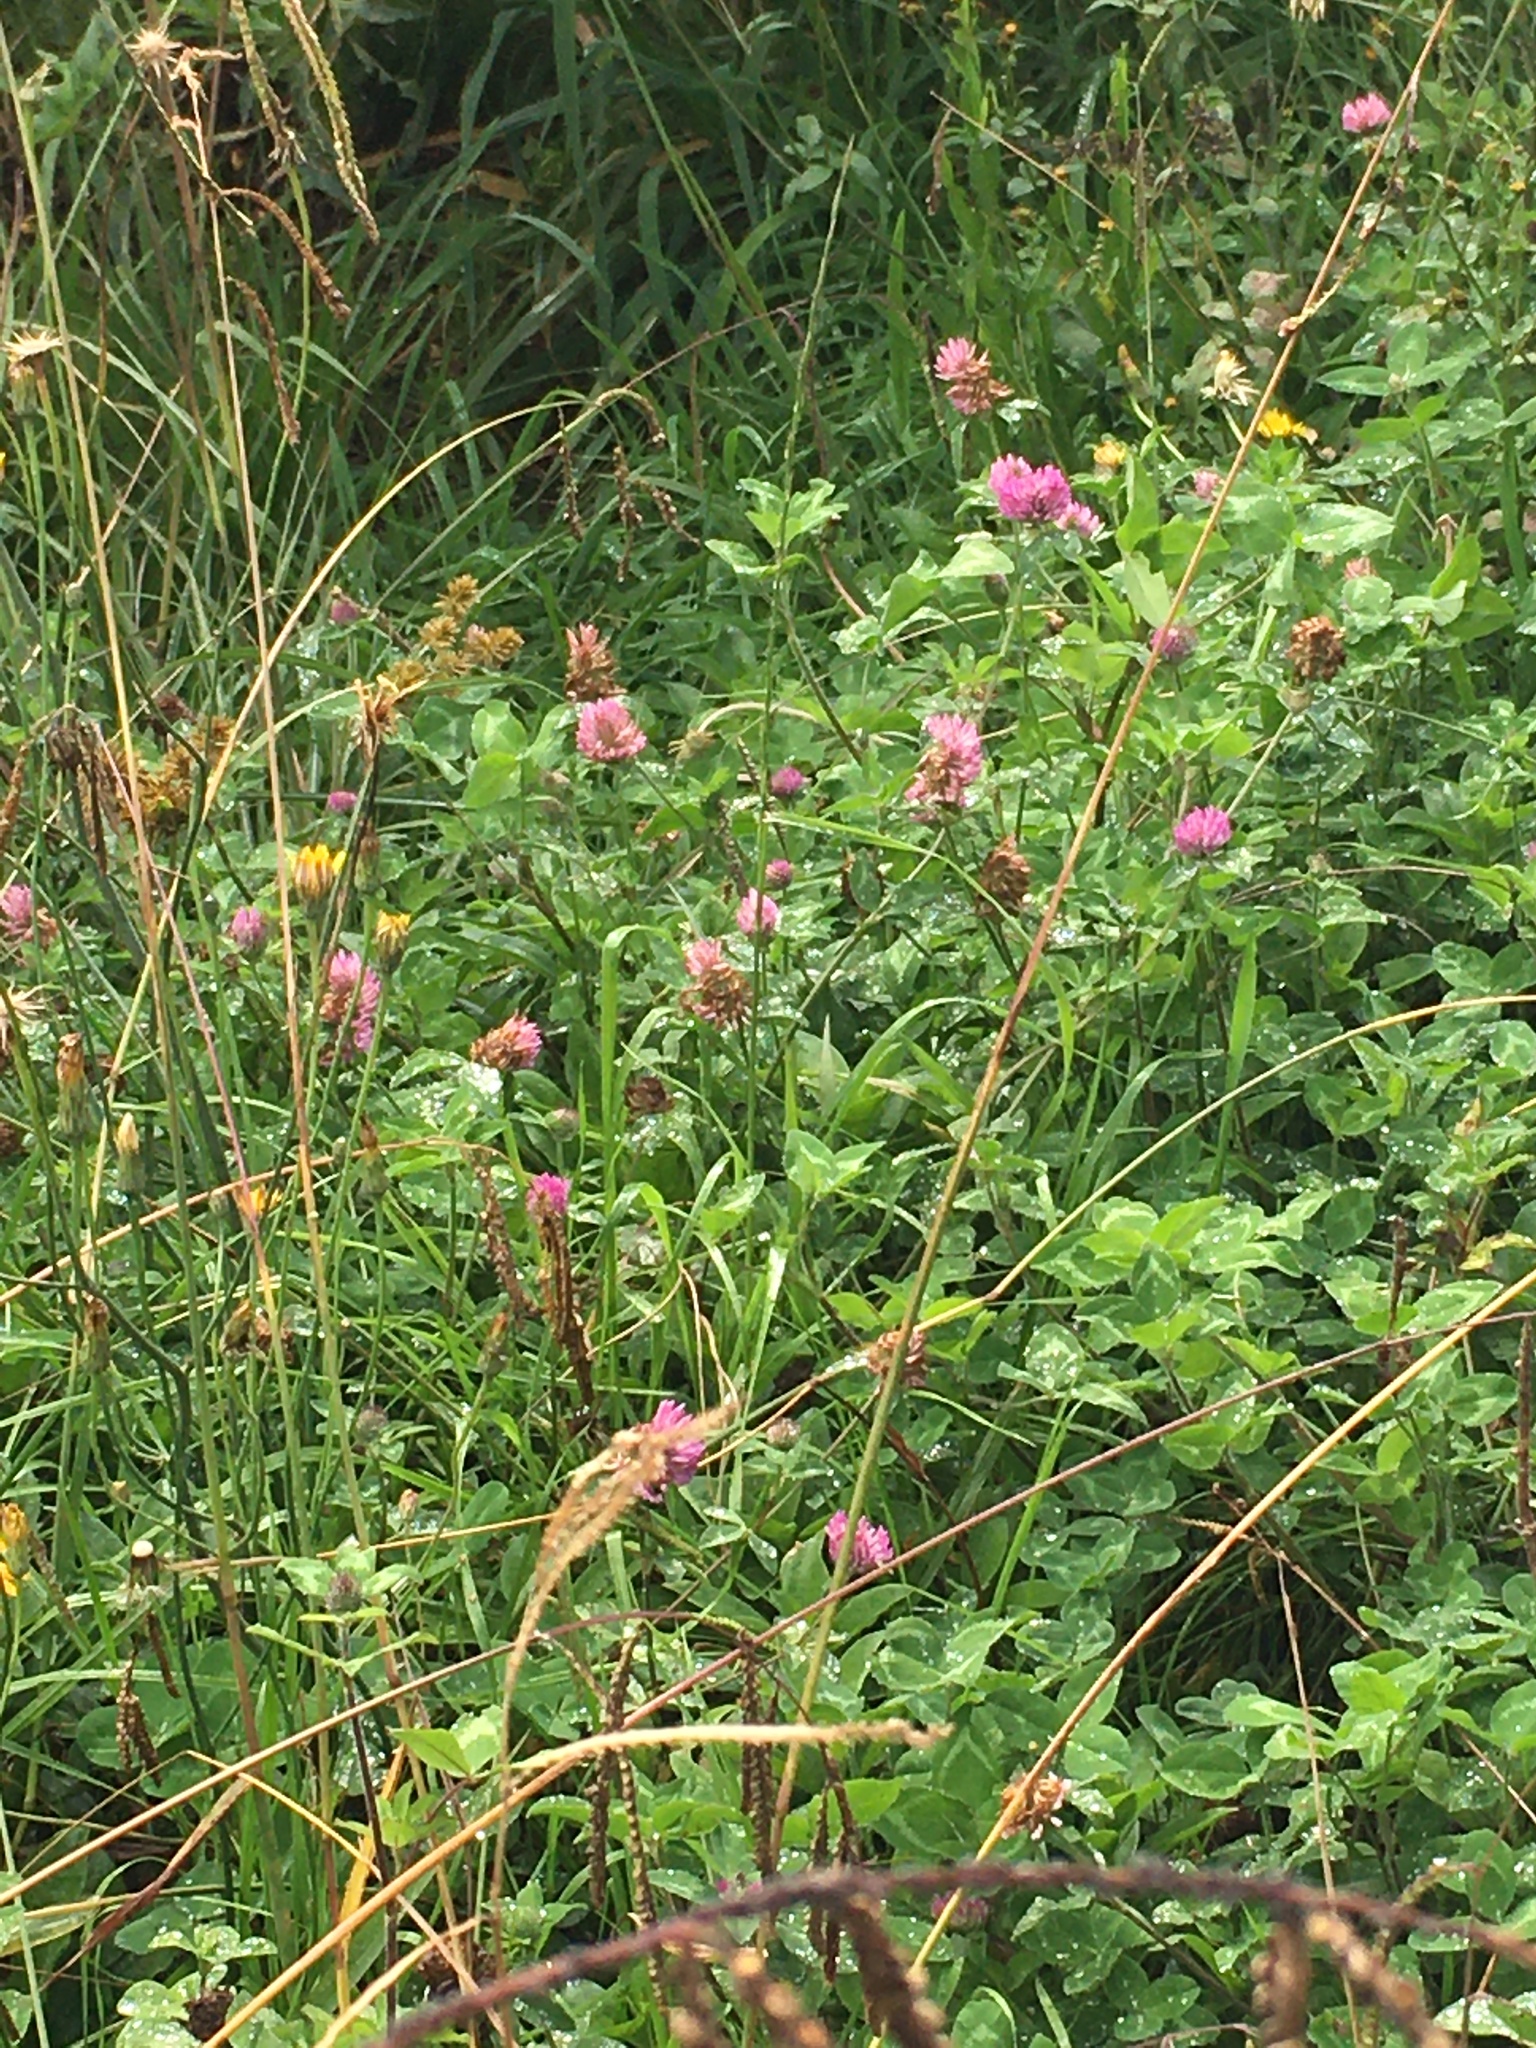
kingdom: Plantae
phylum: Tracheophyta
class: Magnoliopsida
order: Fabales
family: Fabaceae
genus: Trifolium
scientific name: Trifolium pratense
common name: Red clover
